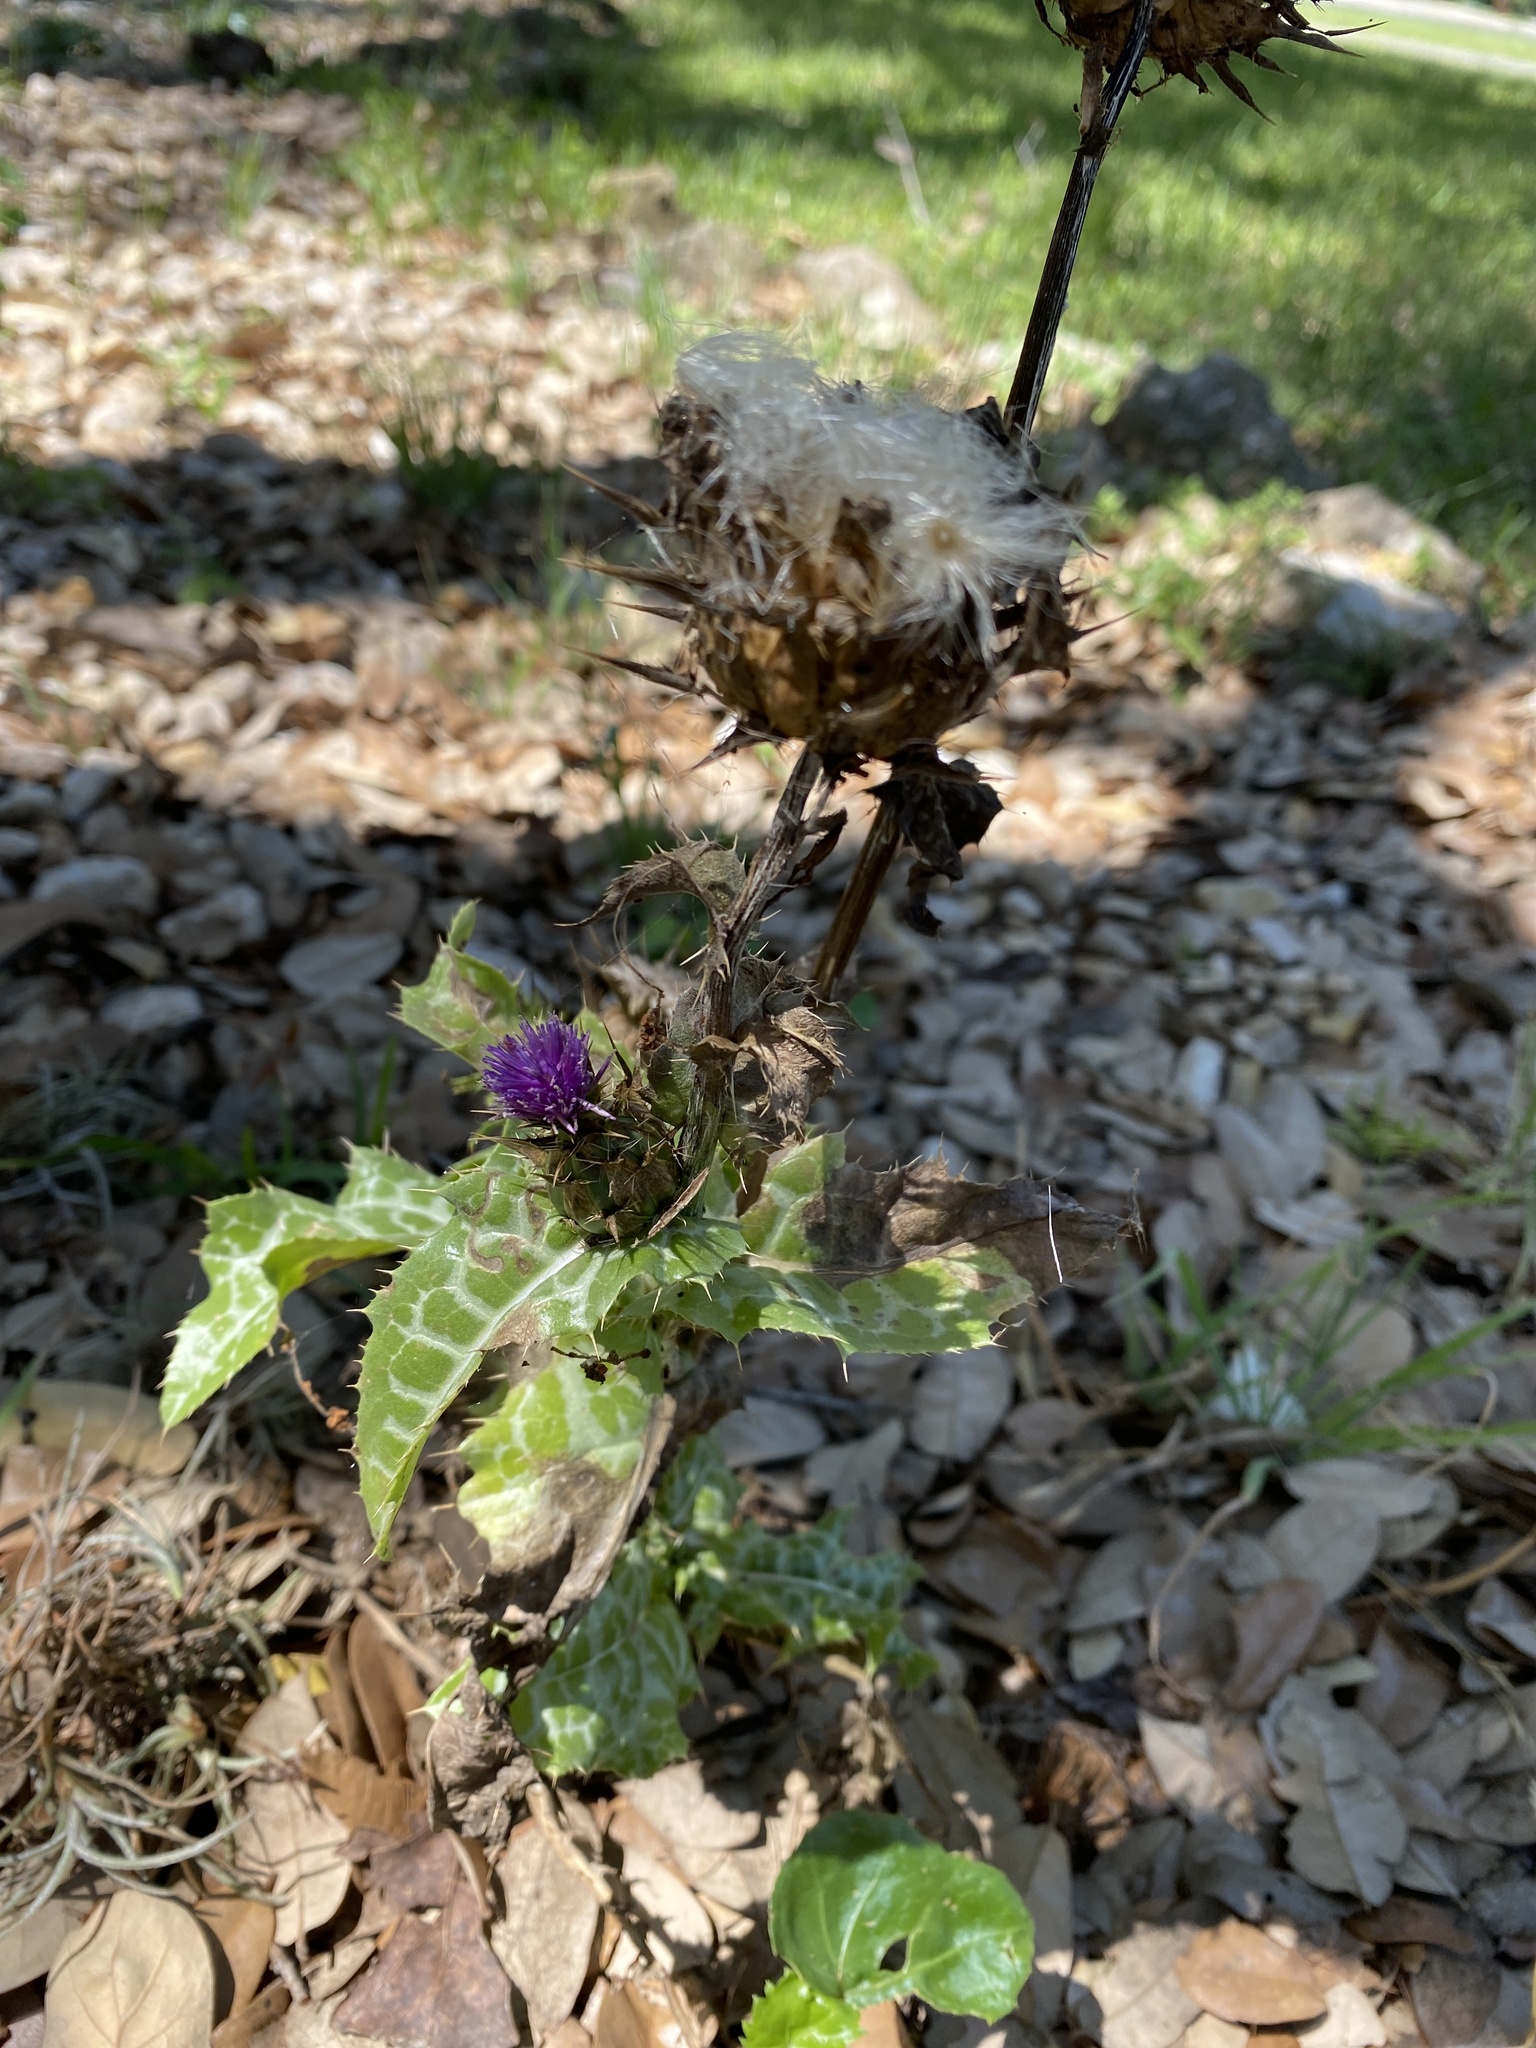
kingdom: Plantae
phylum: Tracheophyta
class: Magnoliopsida
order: Asterales
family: Asteraceae
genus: Silybum
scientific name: Silybum marianum
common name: Milk thistle
